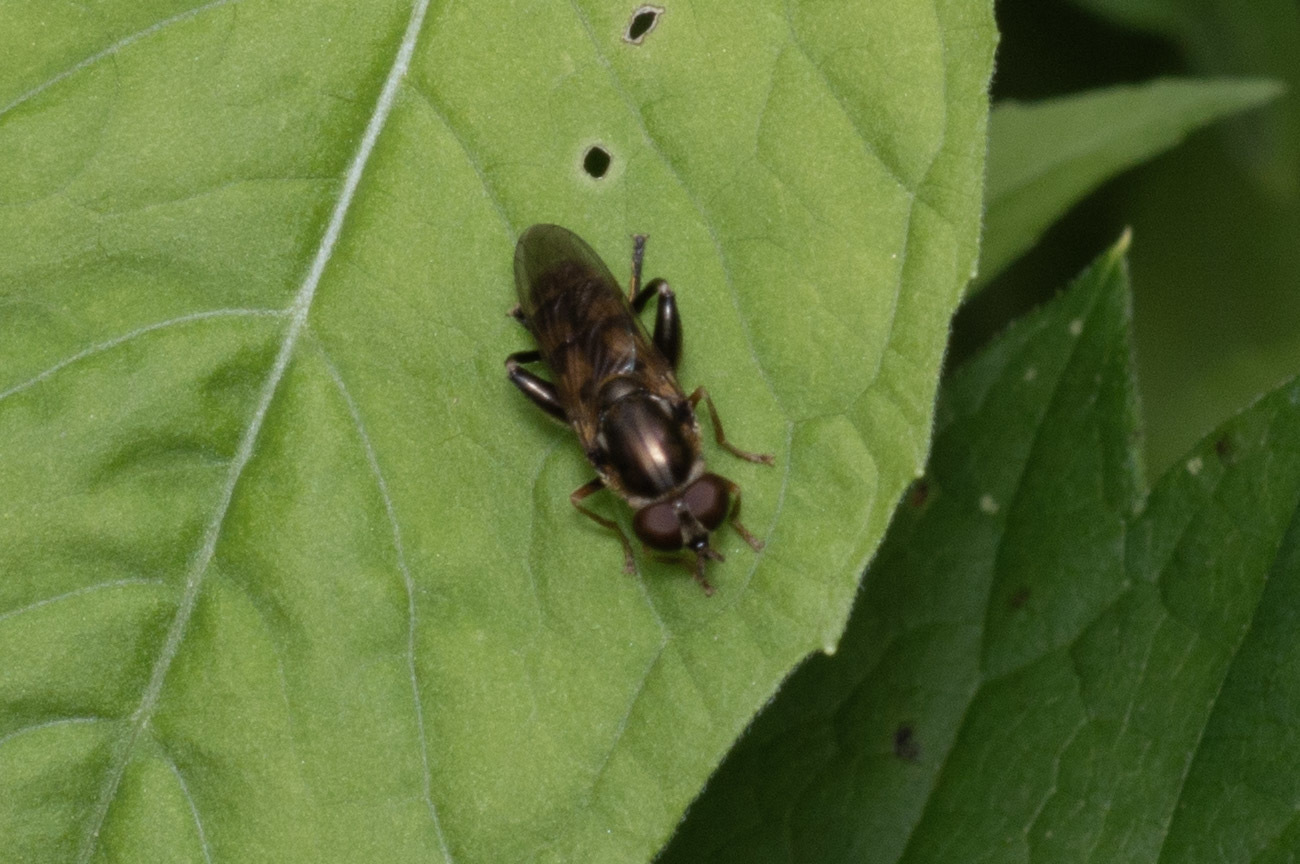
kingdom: Animalia
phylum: Arthropoda
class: Insecta
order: Diptera
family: Syrphidae
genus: Tropidia
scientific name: Tropidia quadrata
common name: Common thick-legged fly
